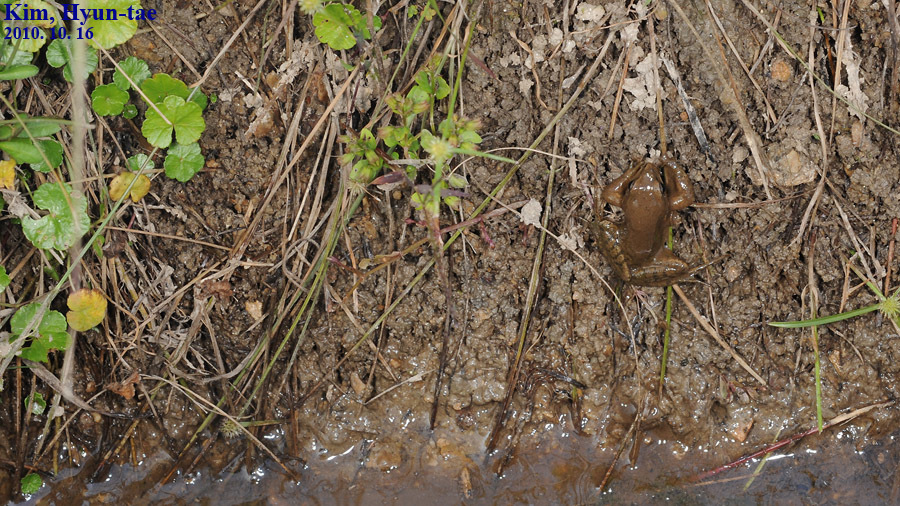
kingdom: Animalia
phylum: Chordata
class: Amphibia
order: Anura
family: Ranidae
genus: Rana
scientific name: Rana coreana
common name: Korean brown frog
